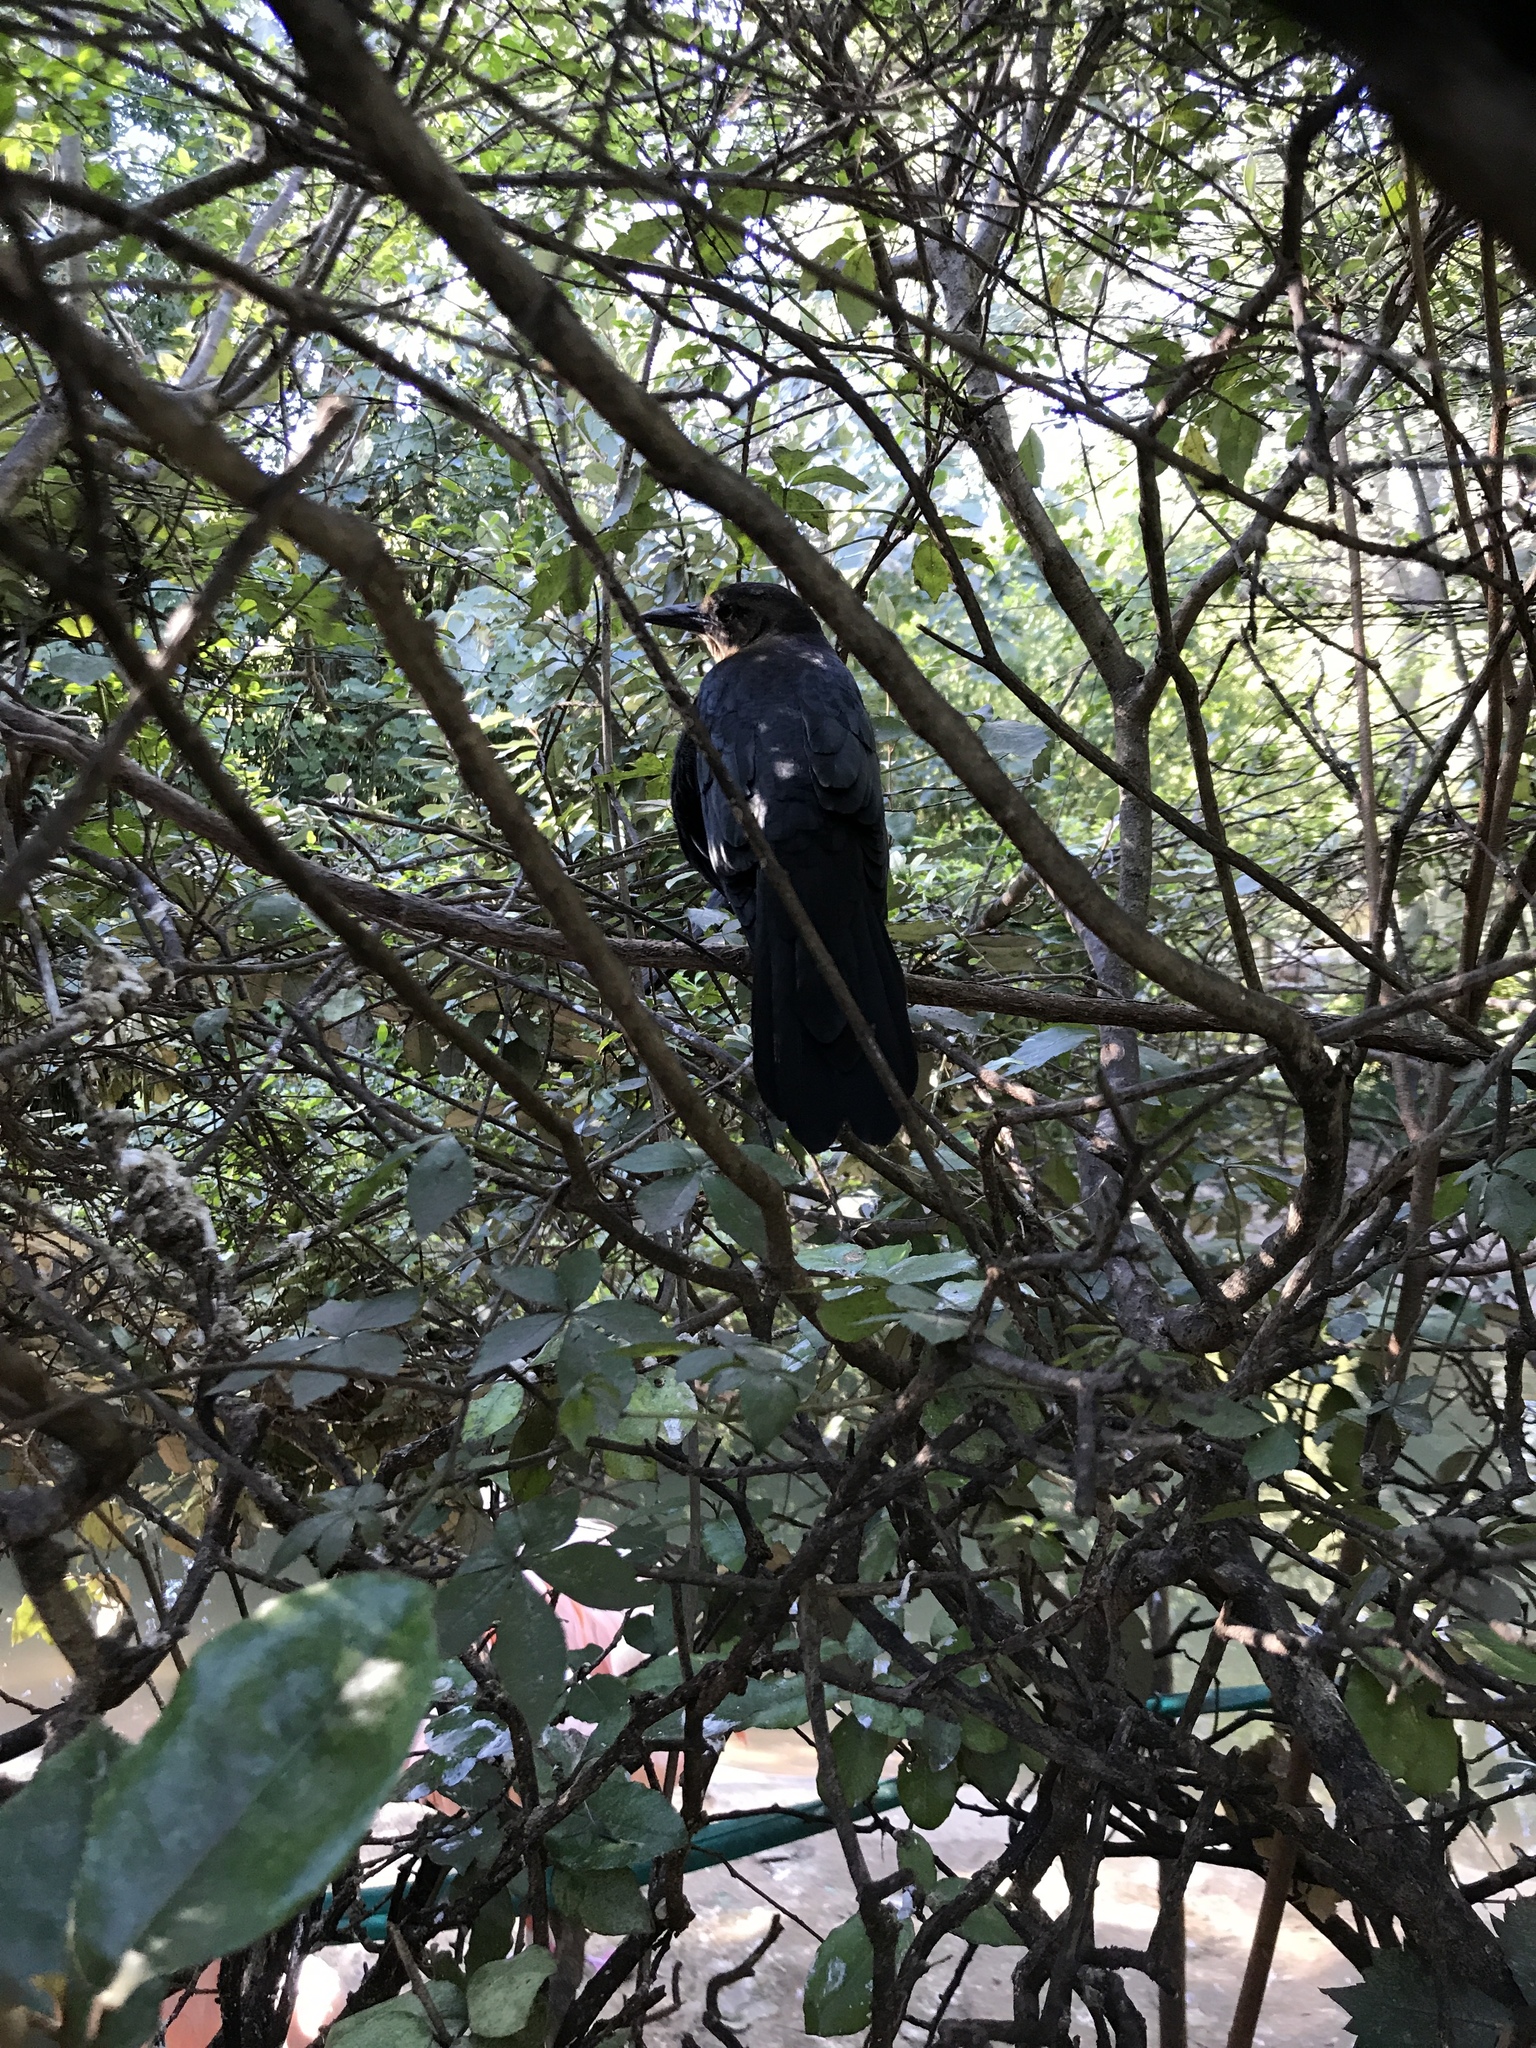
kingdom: Animalia
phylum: Chordata
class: Aves
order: Passeriformes
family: Icteridae
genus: Quiscalus
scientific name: Quiscalus mexicanus
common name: Great-tailed grackle
